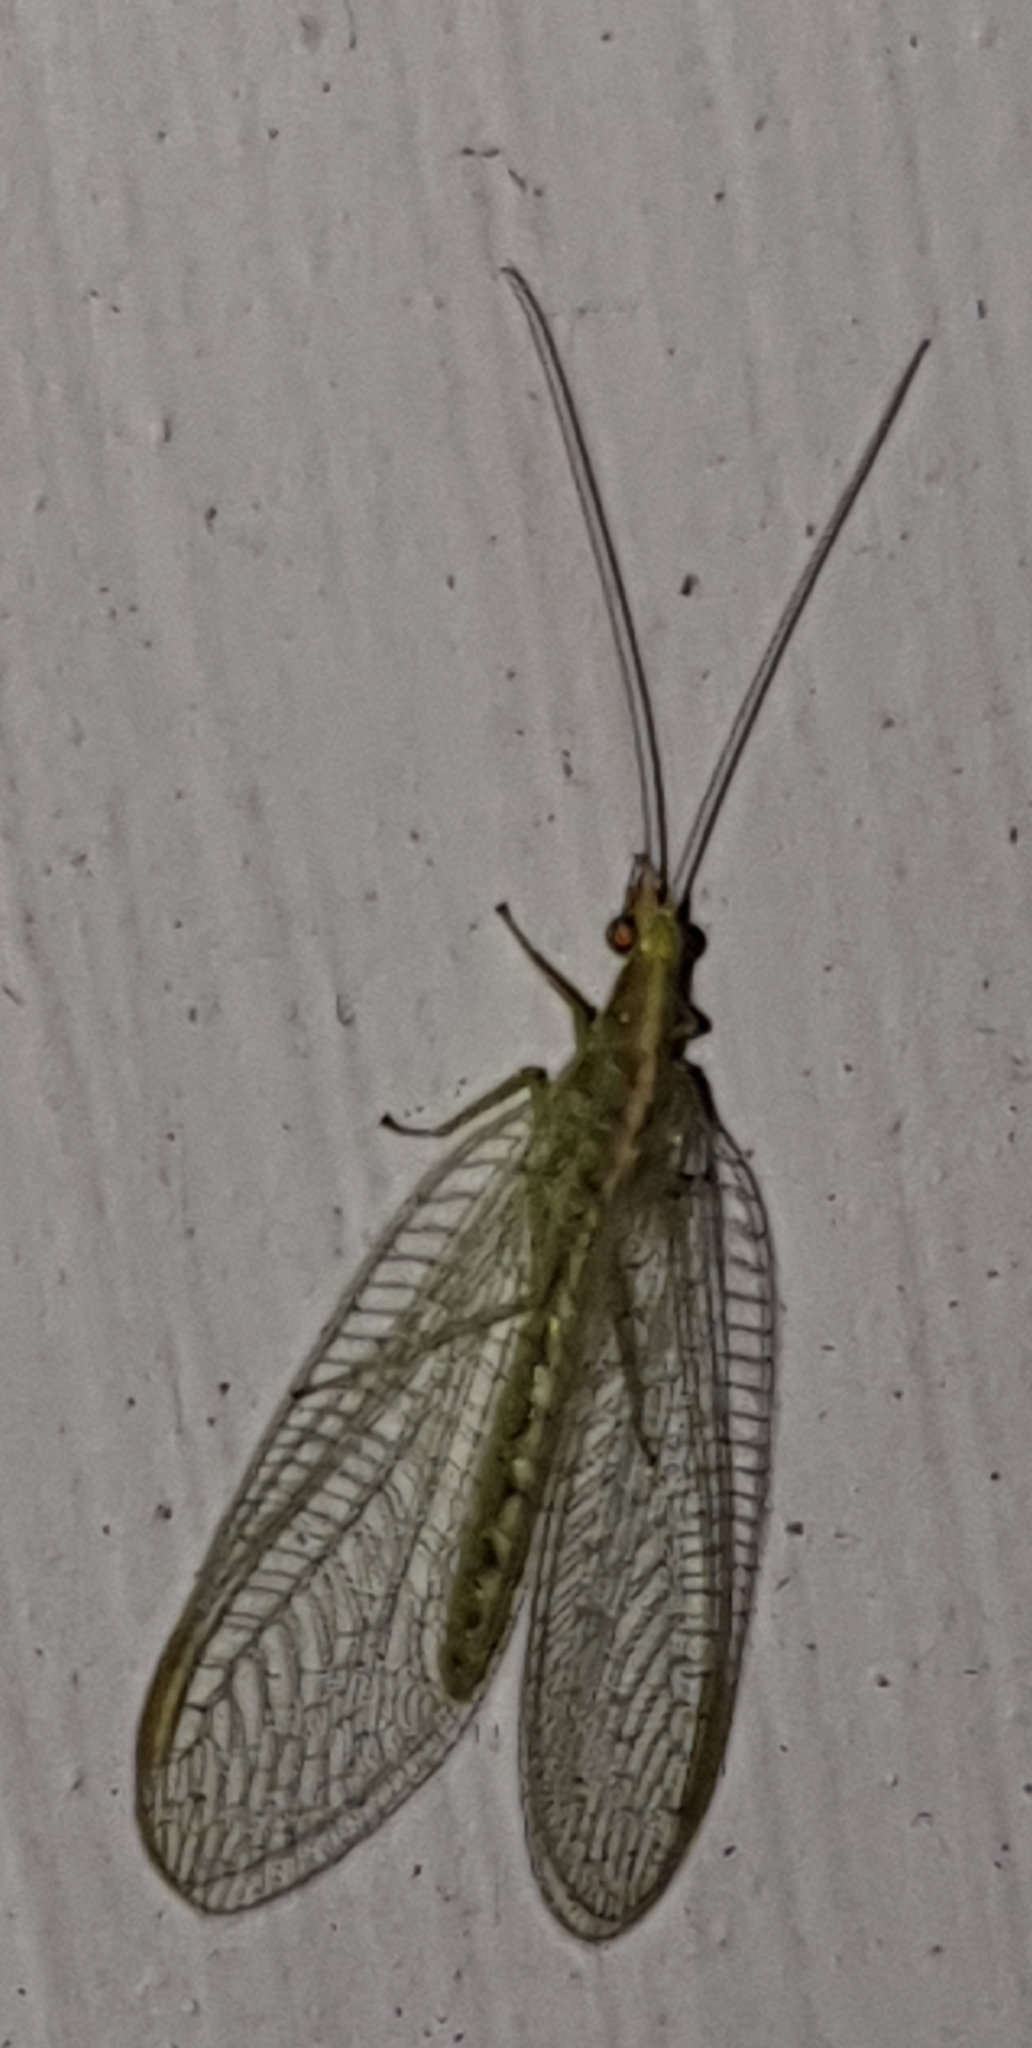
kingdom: Animalia
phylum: Arthropoda
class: Insecta
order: Neuroptera
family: Chrysopidae
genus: Chrysoperla
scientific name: Chrysoperla
